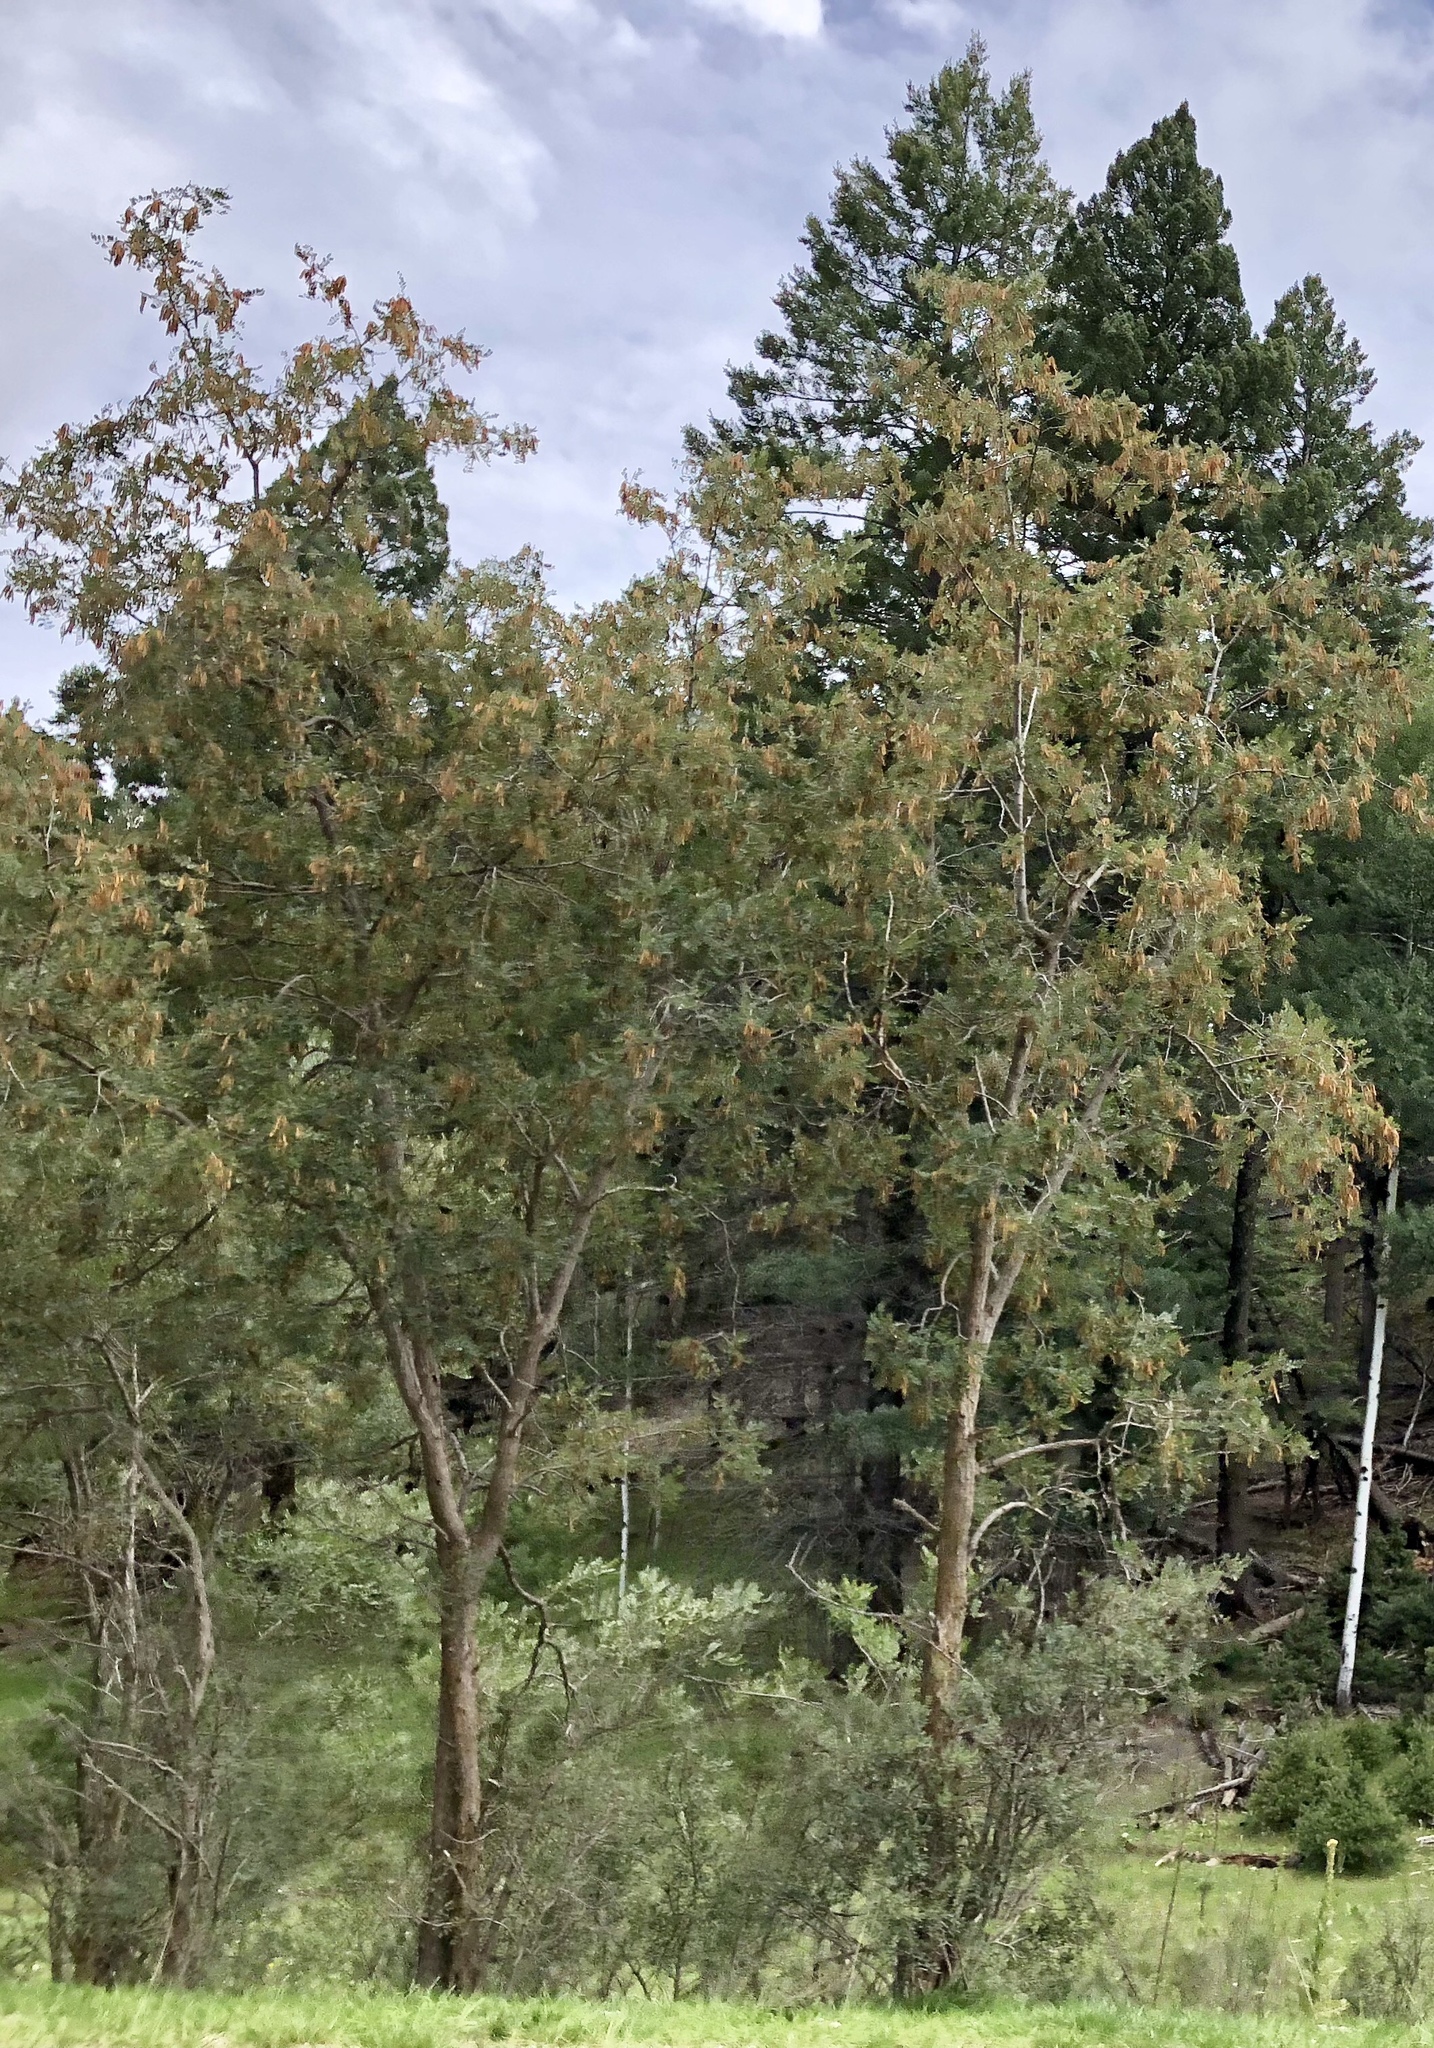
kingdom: Plantae
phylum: Tracheophyta
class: Magnoliopsida
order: Fabales
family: Fabaceae
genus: Robinia
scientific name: Robinia neomexicana
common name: New mexico locust
